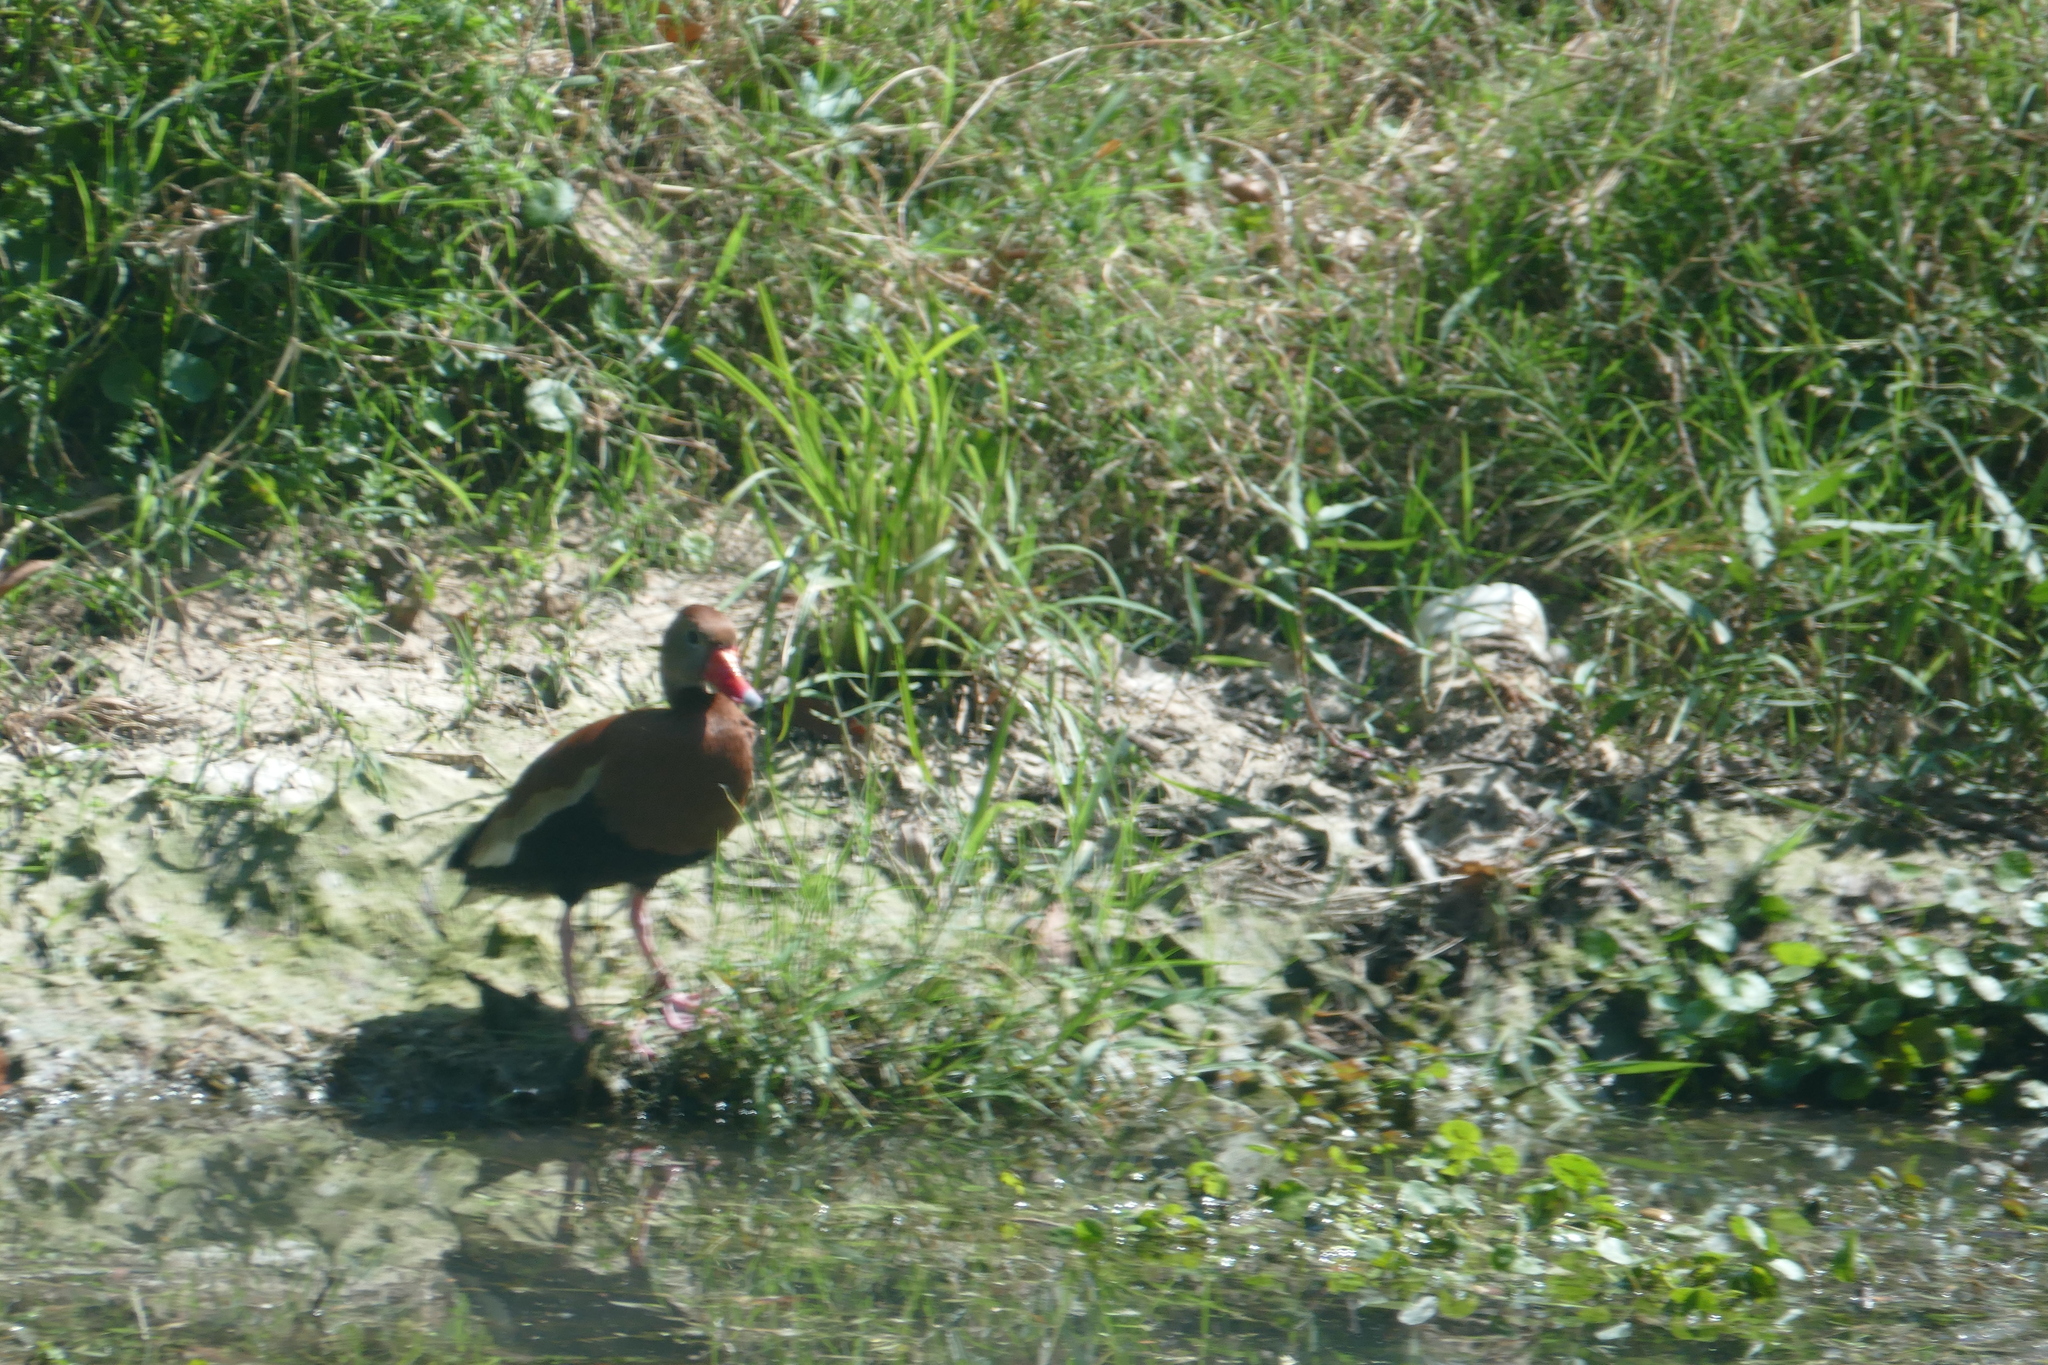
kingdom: Animalia
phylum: Chordata
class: Aves
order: Anseriformes
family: Anatidae
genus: Dendrocygna
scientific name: Dendrocygna autumnalis
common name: Black-bellied whistling duck
